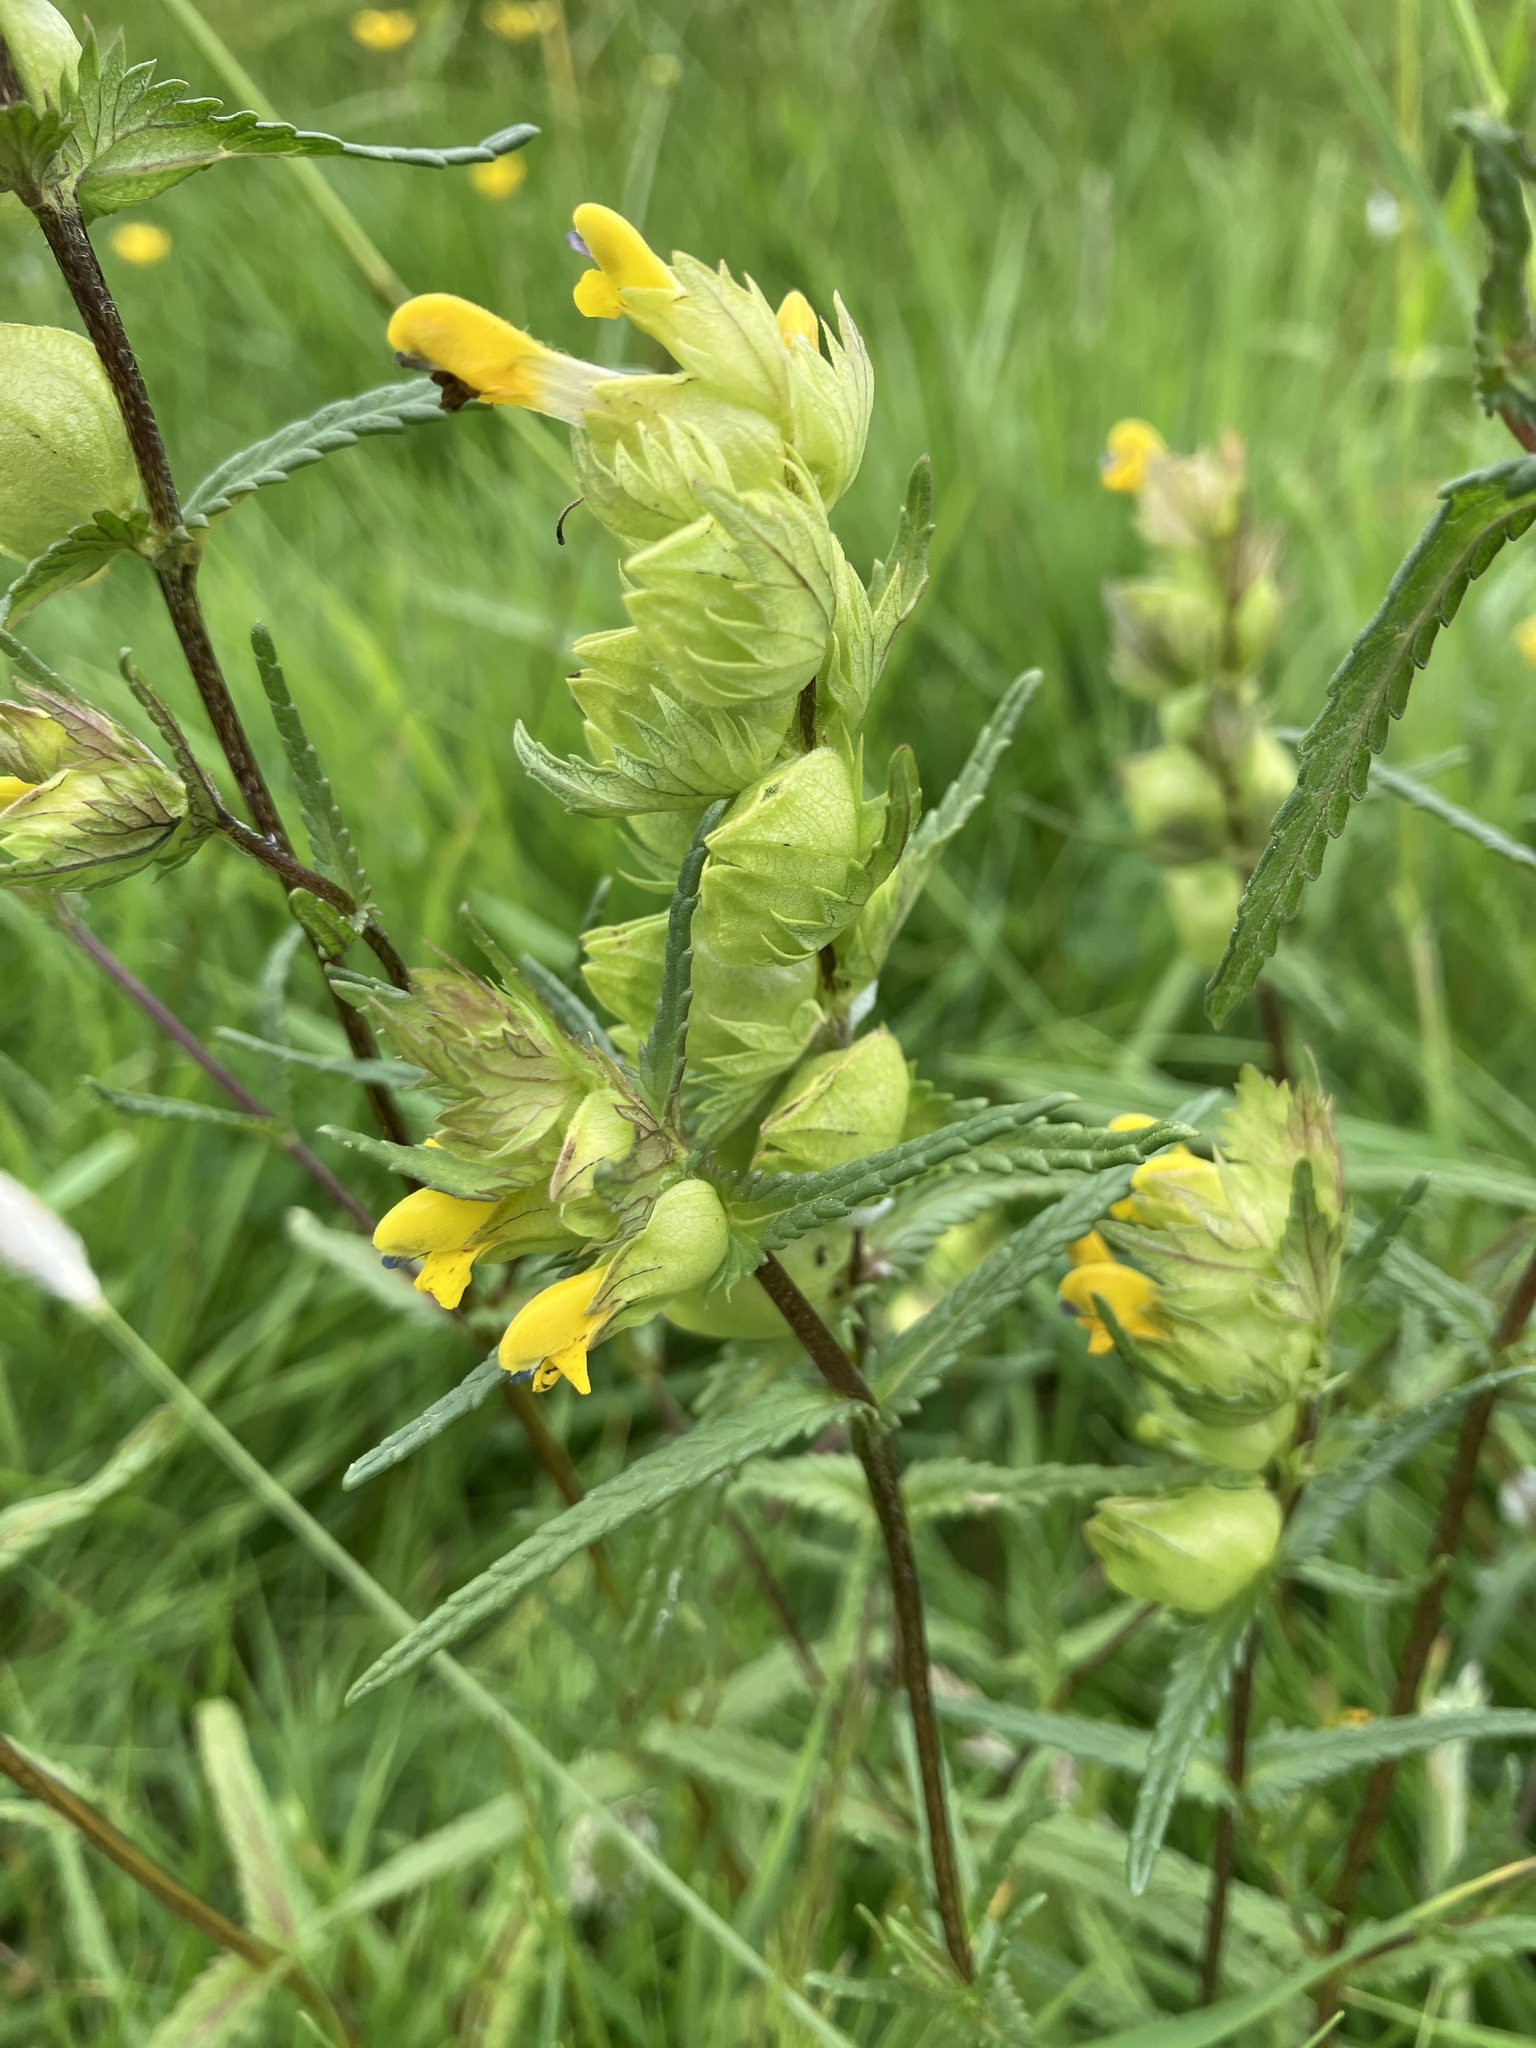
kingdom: Plantae
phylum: Tracheophyta
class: Magnoliopsida
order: Lamiales
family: Orobanchaceae
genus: Rhinanthus
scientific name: Rhinanthus minor
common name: Yellow-rattle
